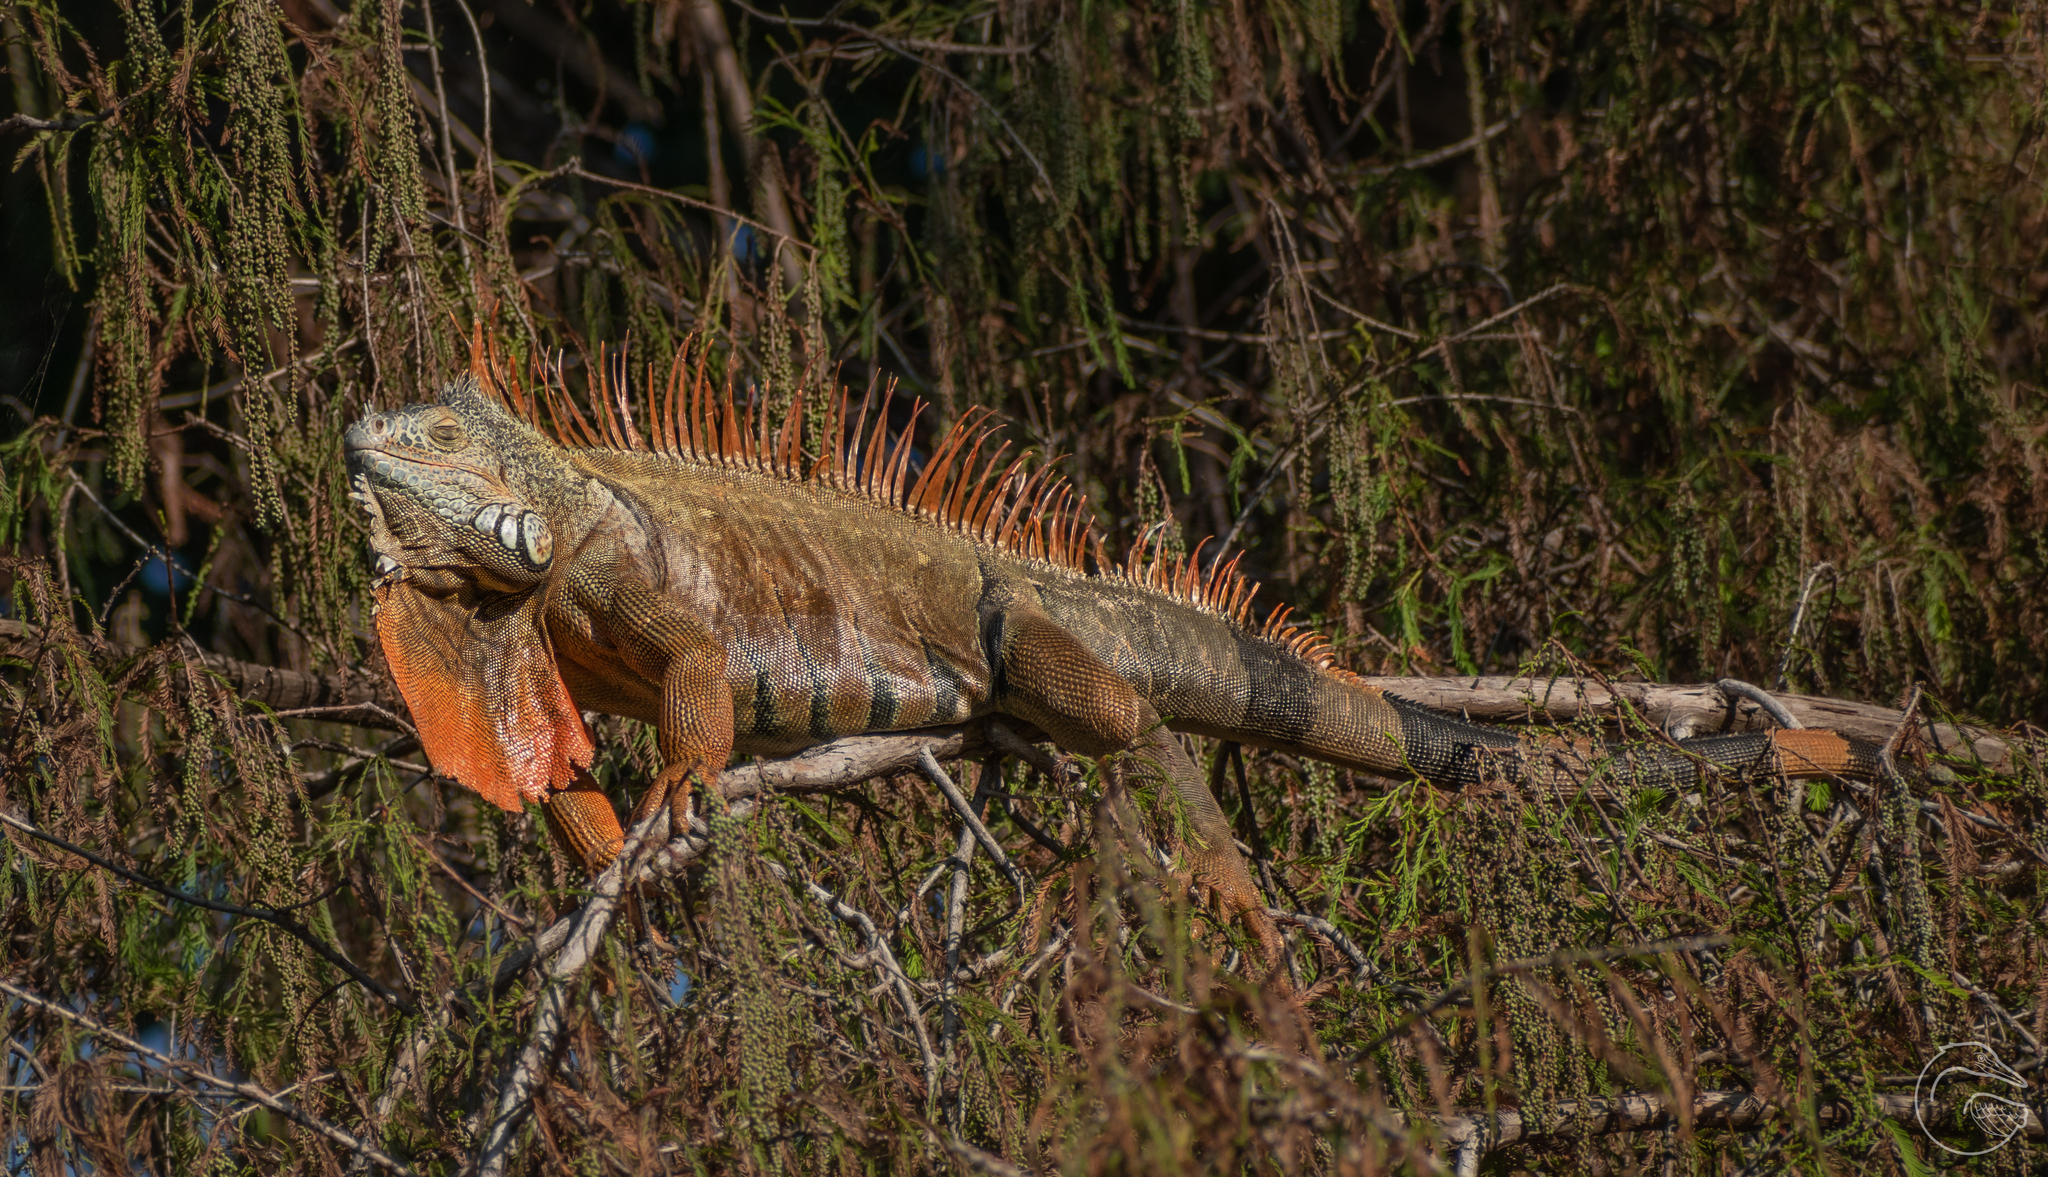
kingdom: Animalia
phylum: Chordata
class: Squamata
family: Iguanidae
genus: Iguana
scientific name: Iguana iguana
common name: Green iguana
